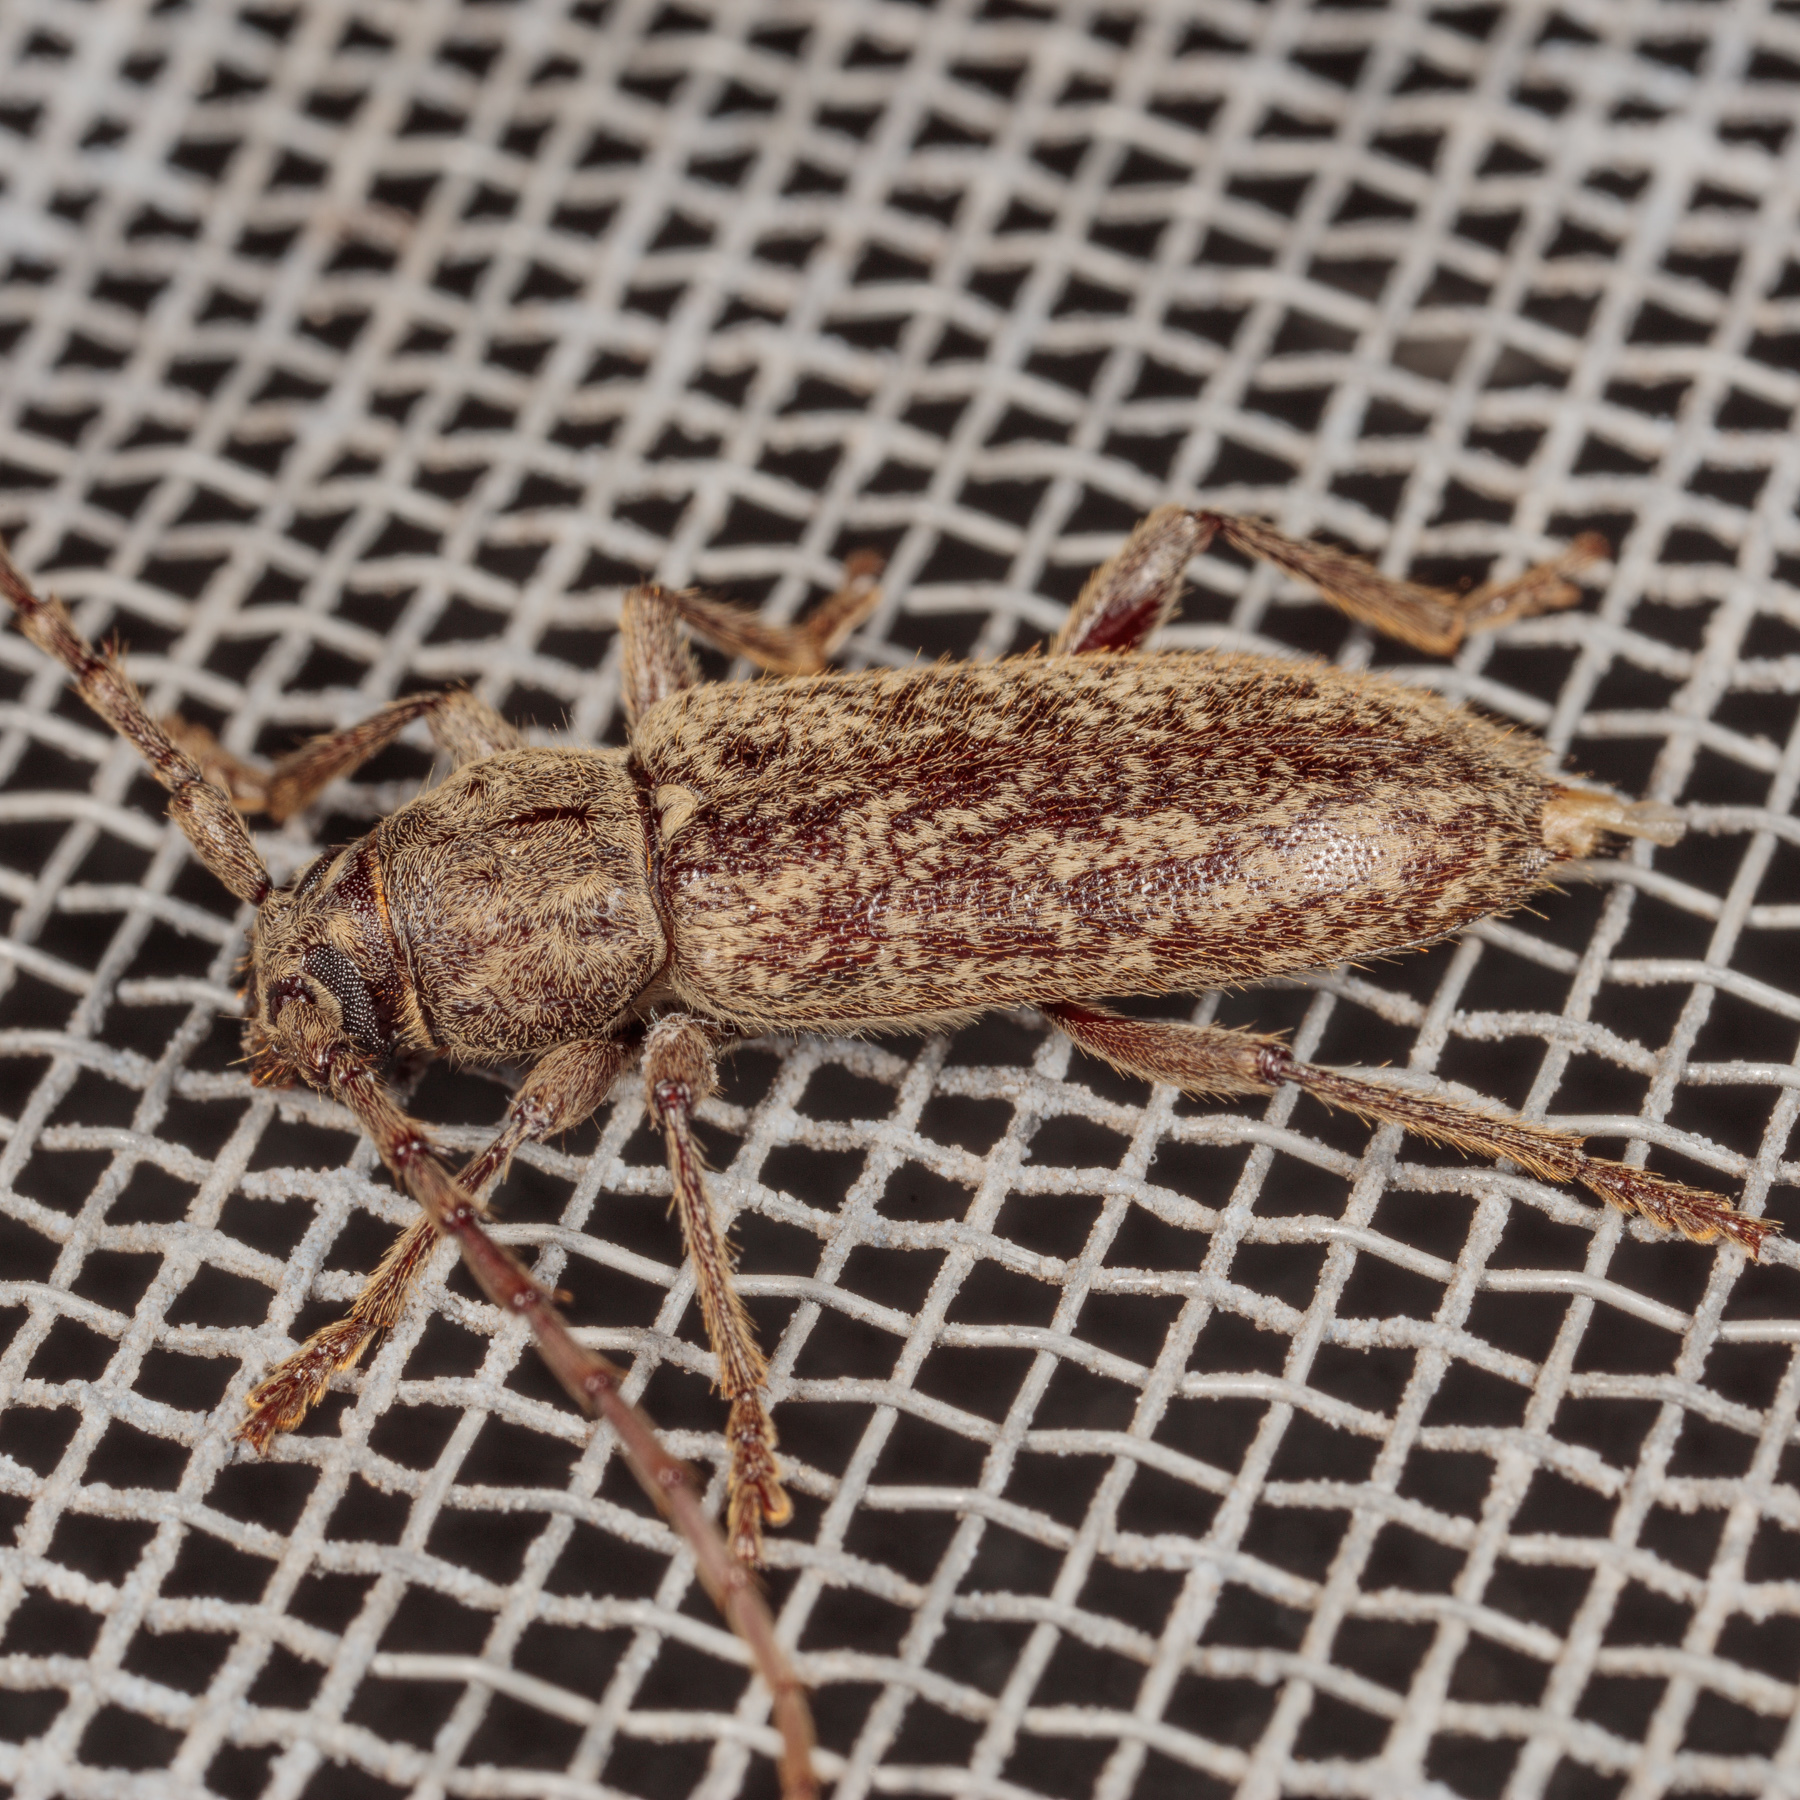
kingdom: Animalia
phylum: Arthropoda
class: Insecta
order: Coleoptera
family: Cerambycidae
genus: Elaphidion
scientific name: Elaphidion mucronatum
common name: Spined oak borer
